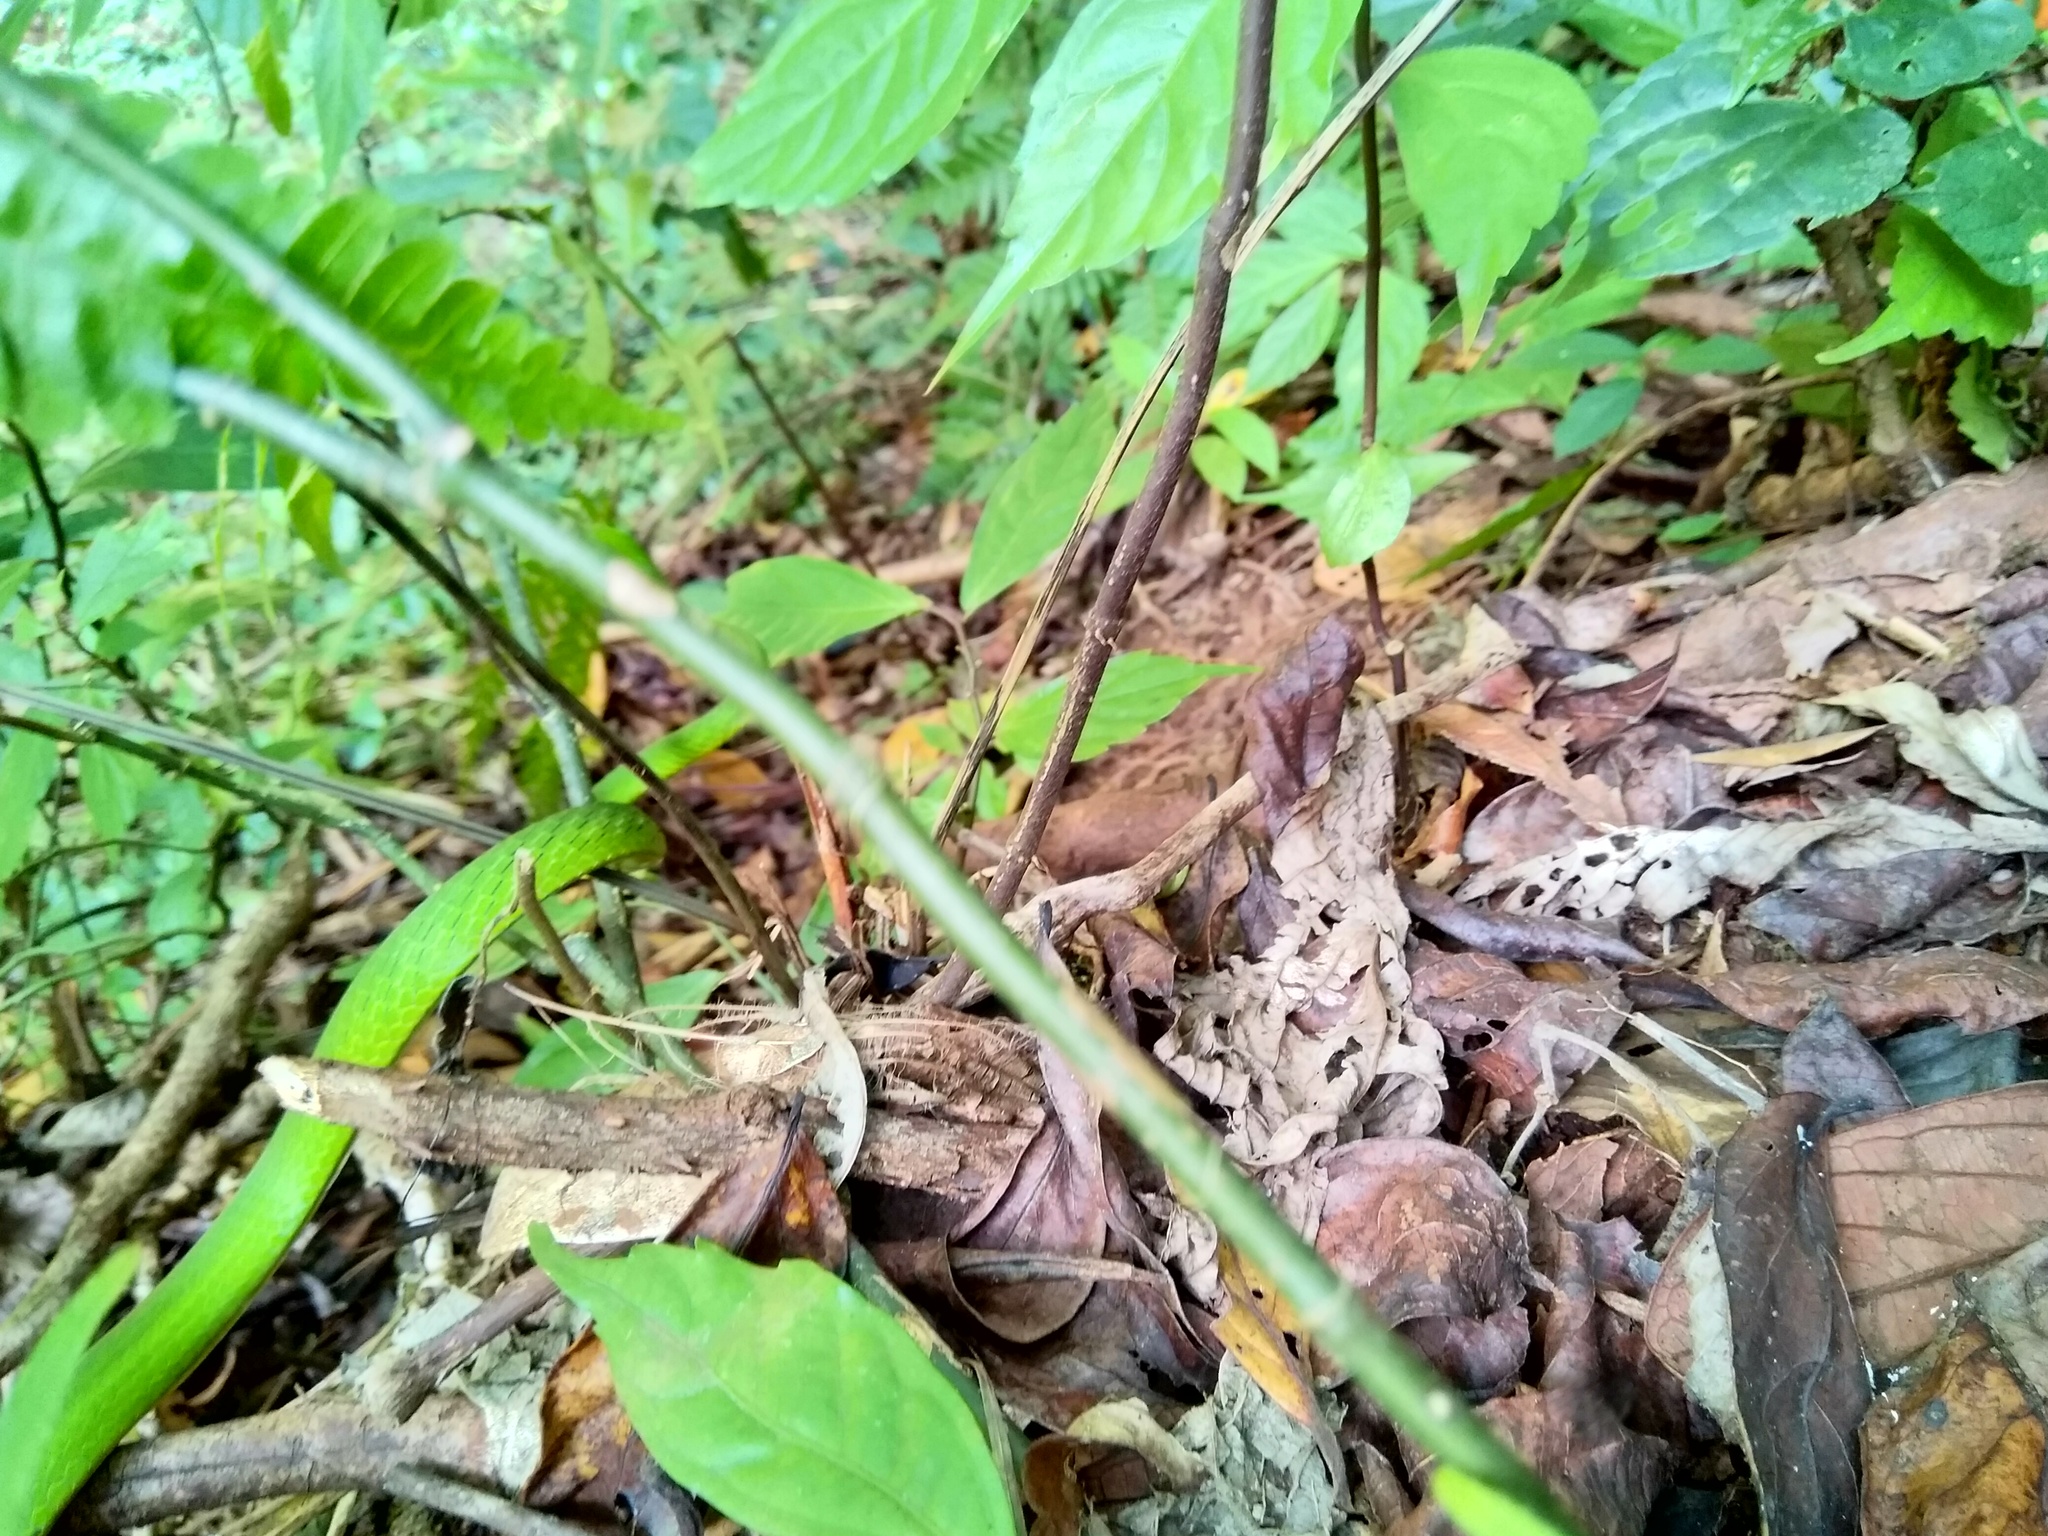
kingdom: Animalia
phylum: Chordata
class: Squamata
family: Colubridae
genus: Ahaetulla
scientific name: Ahaetulla isabellina
